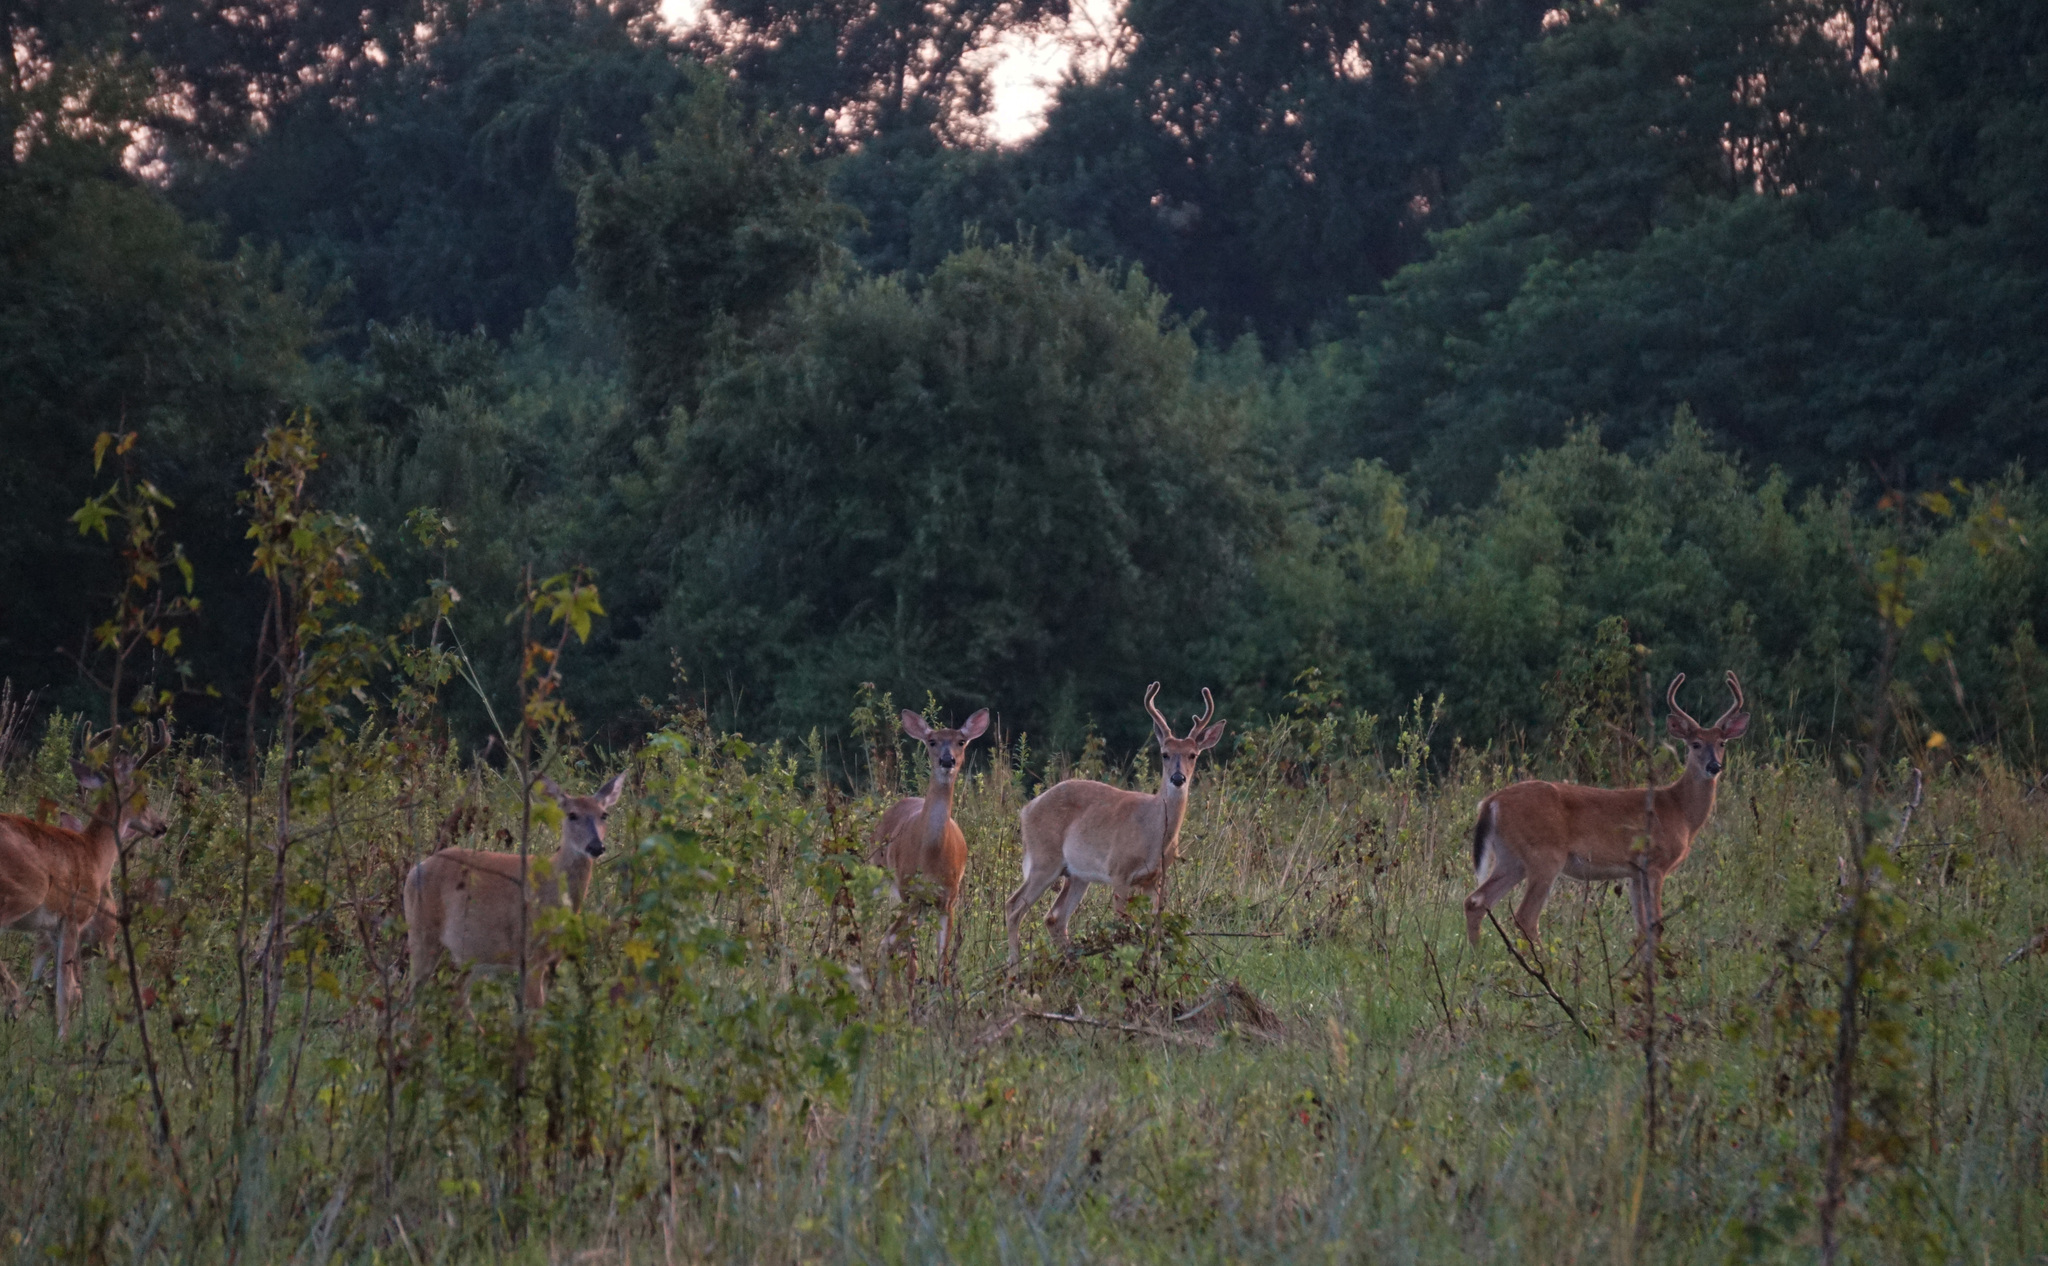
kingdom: Animalia
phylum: Chordata
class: Mammalia
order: Artiodactyla
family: Cervidae
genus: Odocoileus
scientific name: Odocoileus virginianus
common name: White-tailed deer
